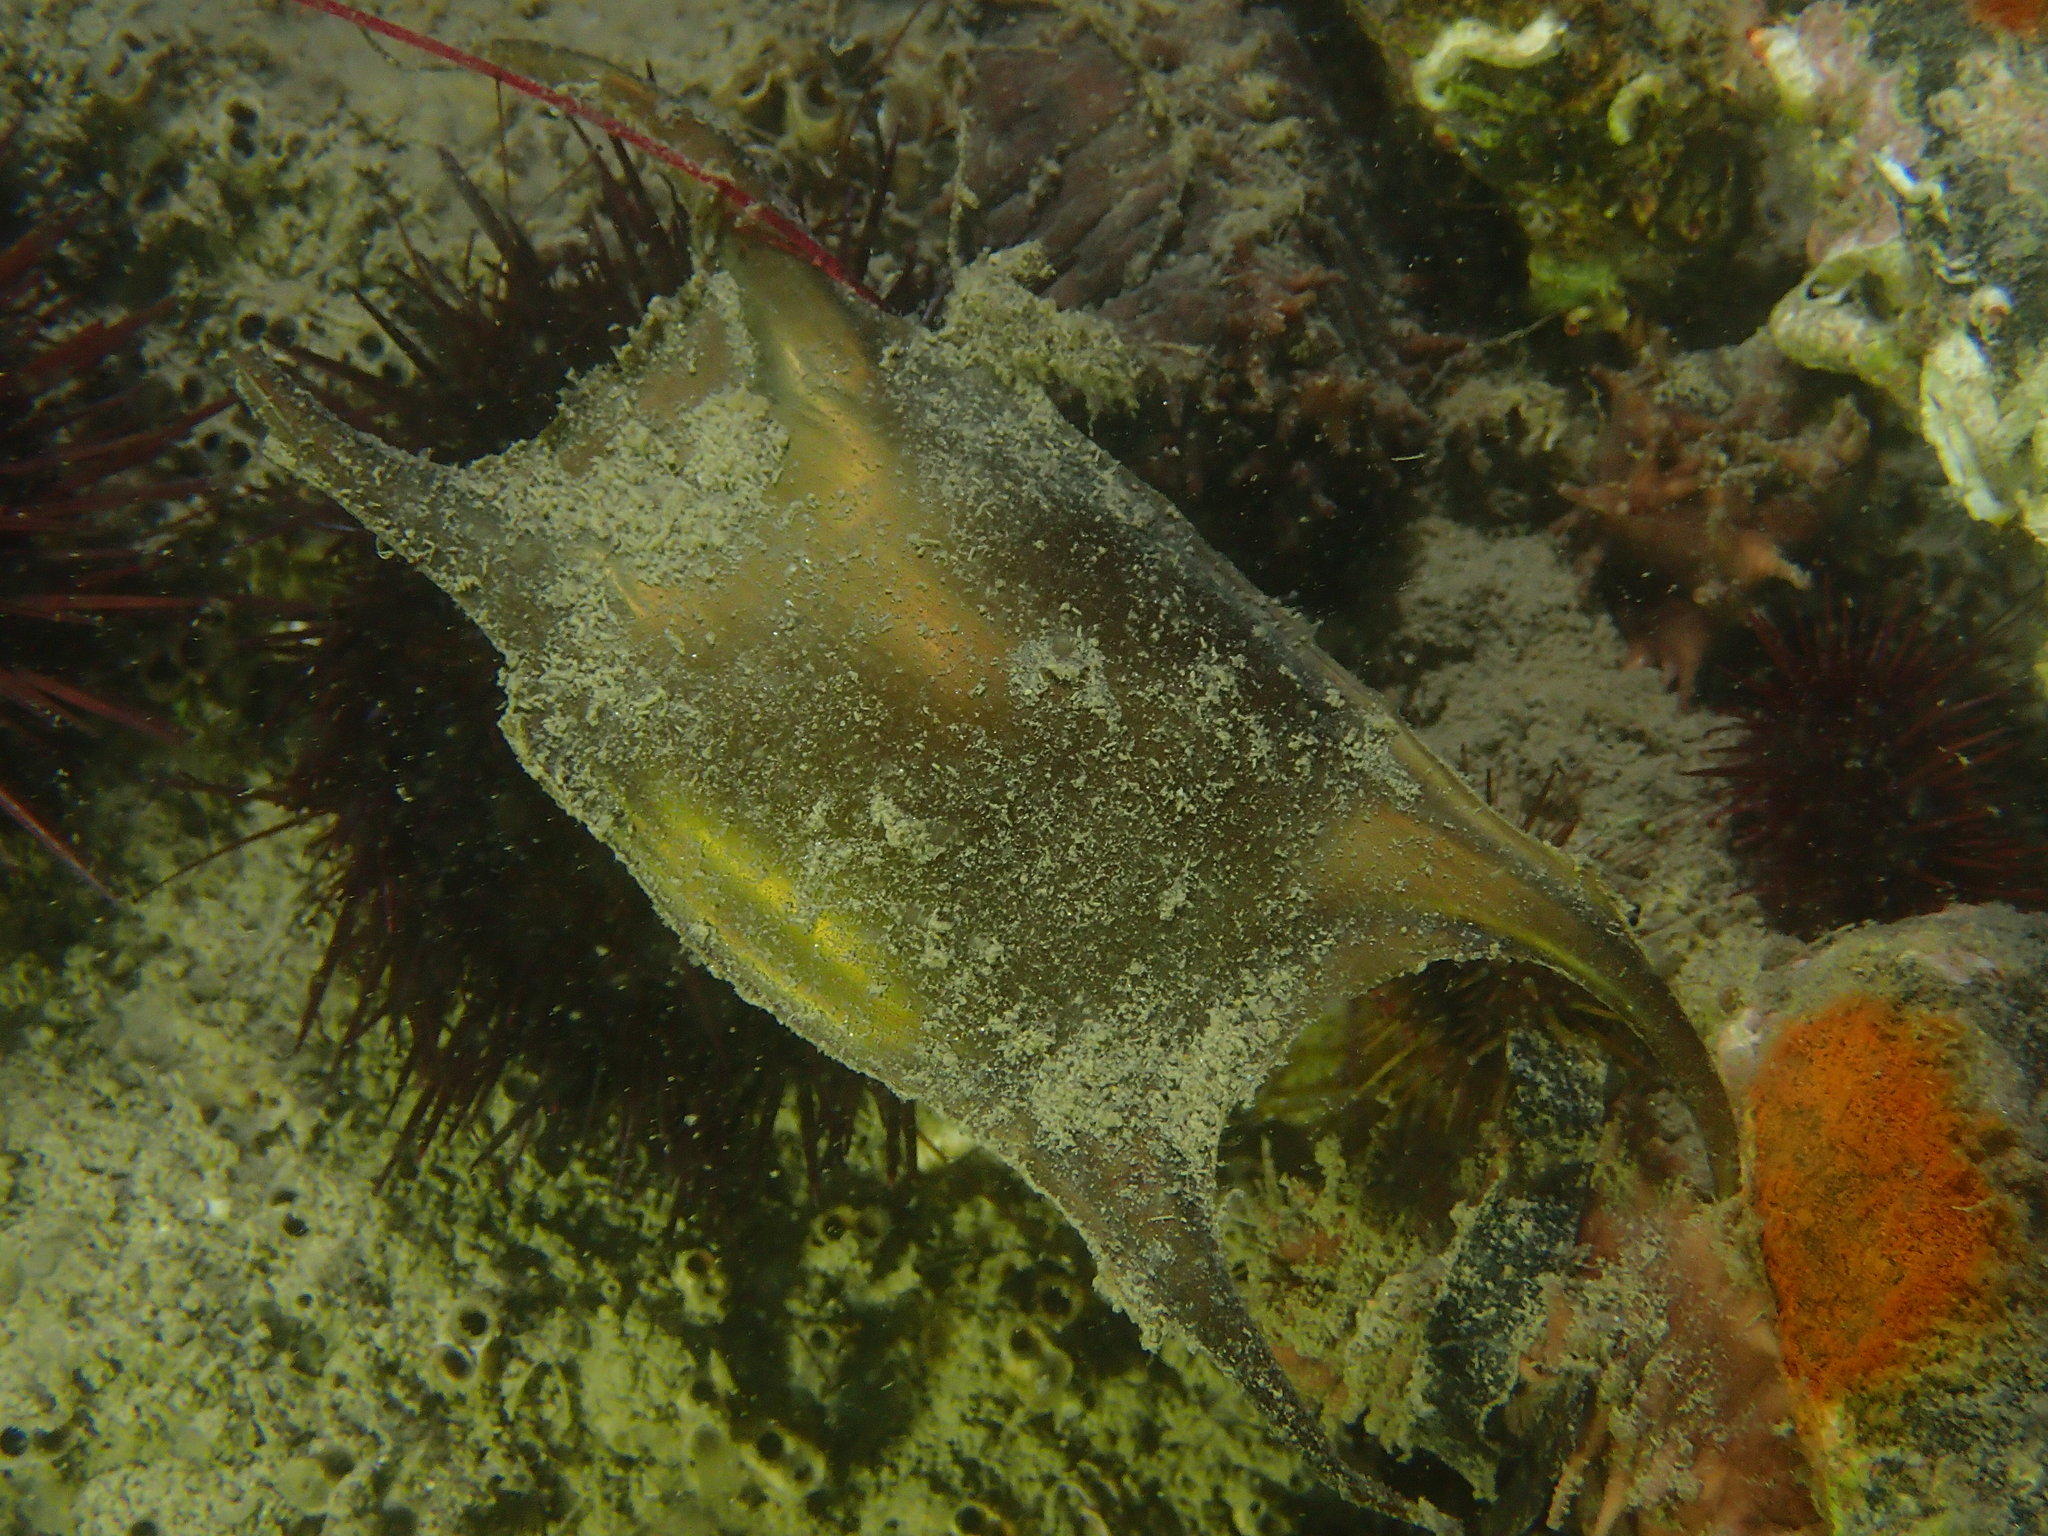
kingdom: Animalia
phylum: Chordata
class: Elasmobranchii
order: Rajiformes
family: Rajidae
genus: Raja
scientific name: Raja
